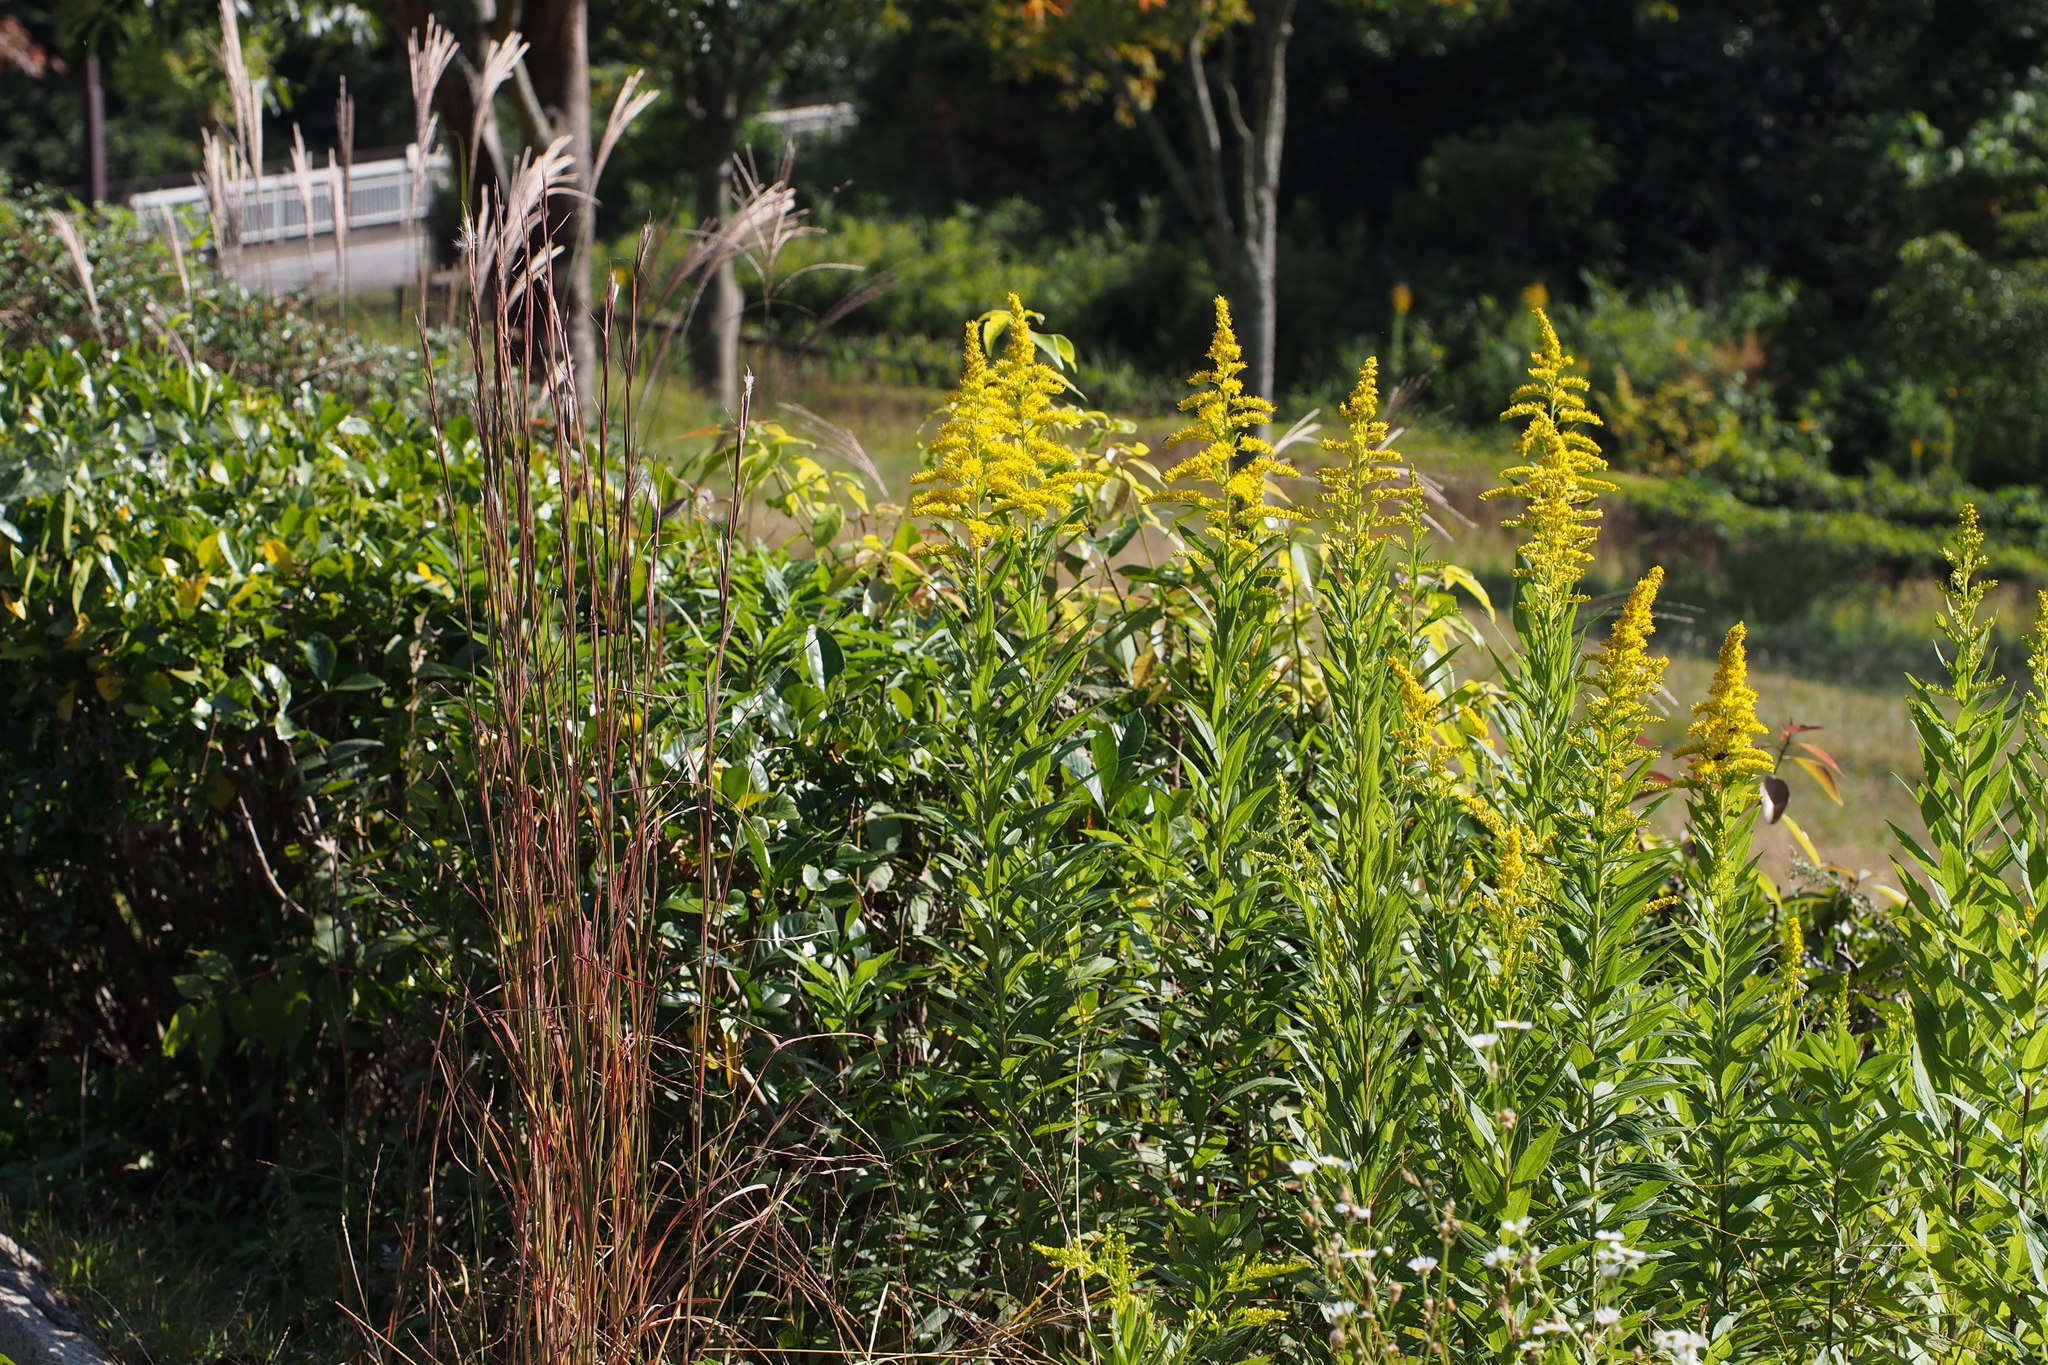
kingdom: Plantae
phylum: Tracheophyta
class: Magnoliopsida
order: Asterales
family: Asteraceae
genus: Solidago
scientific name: Solidago altissima
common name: Late goldenrod
